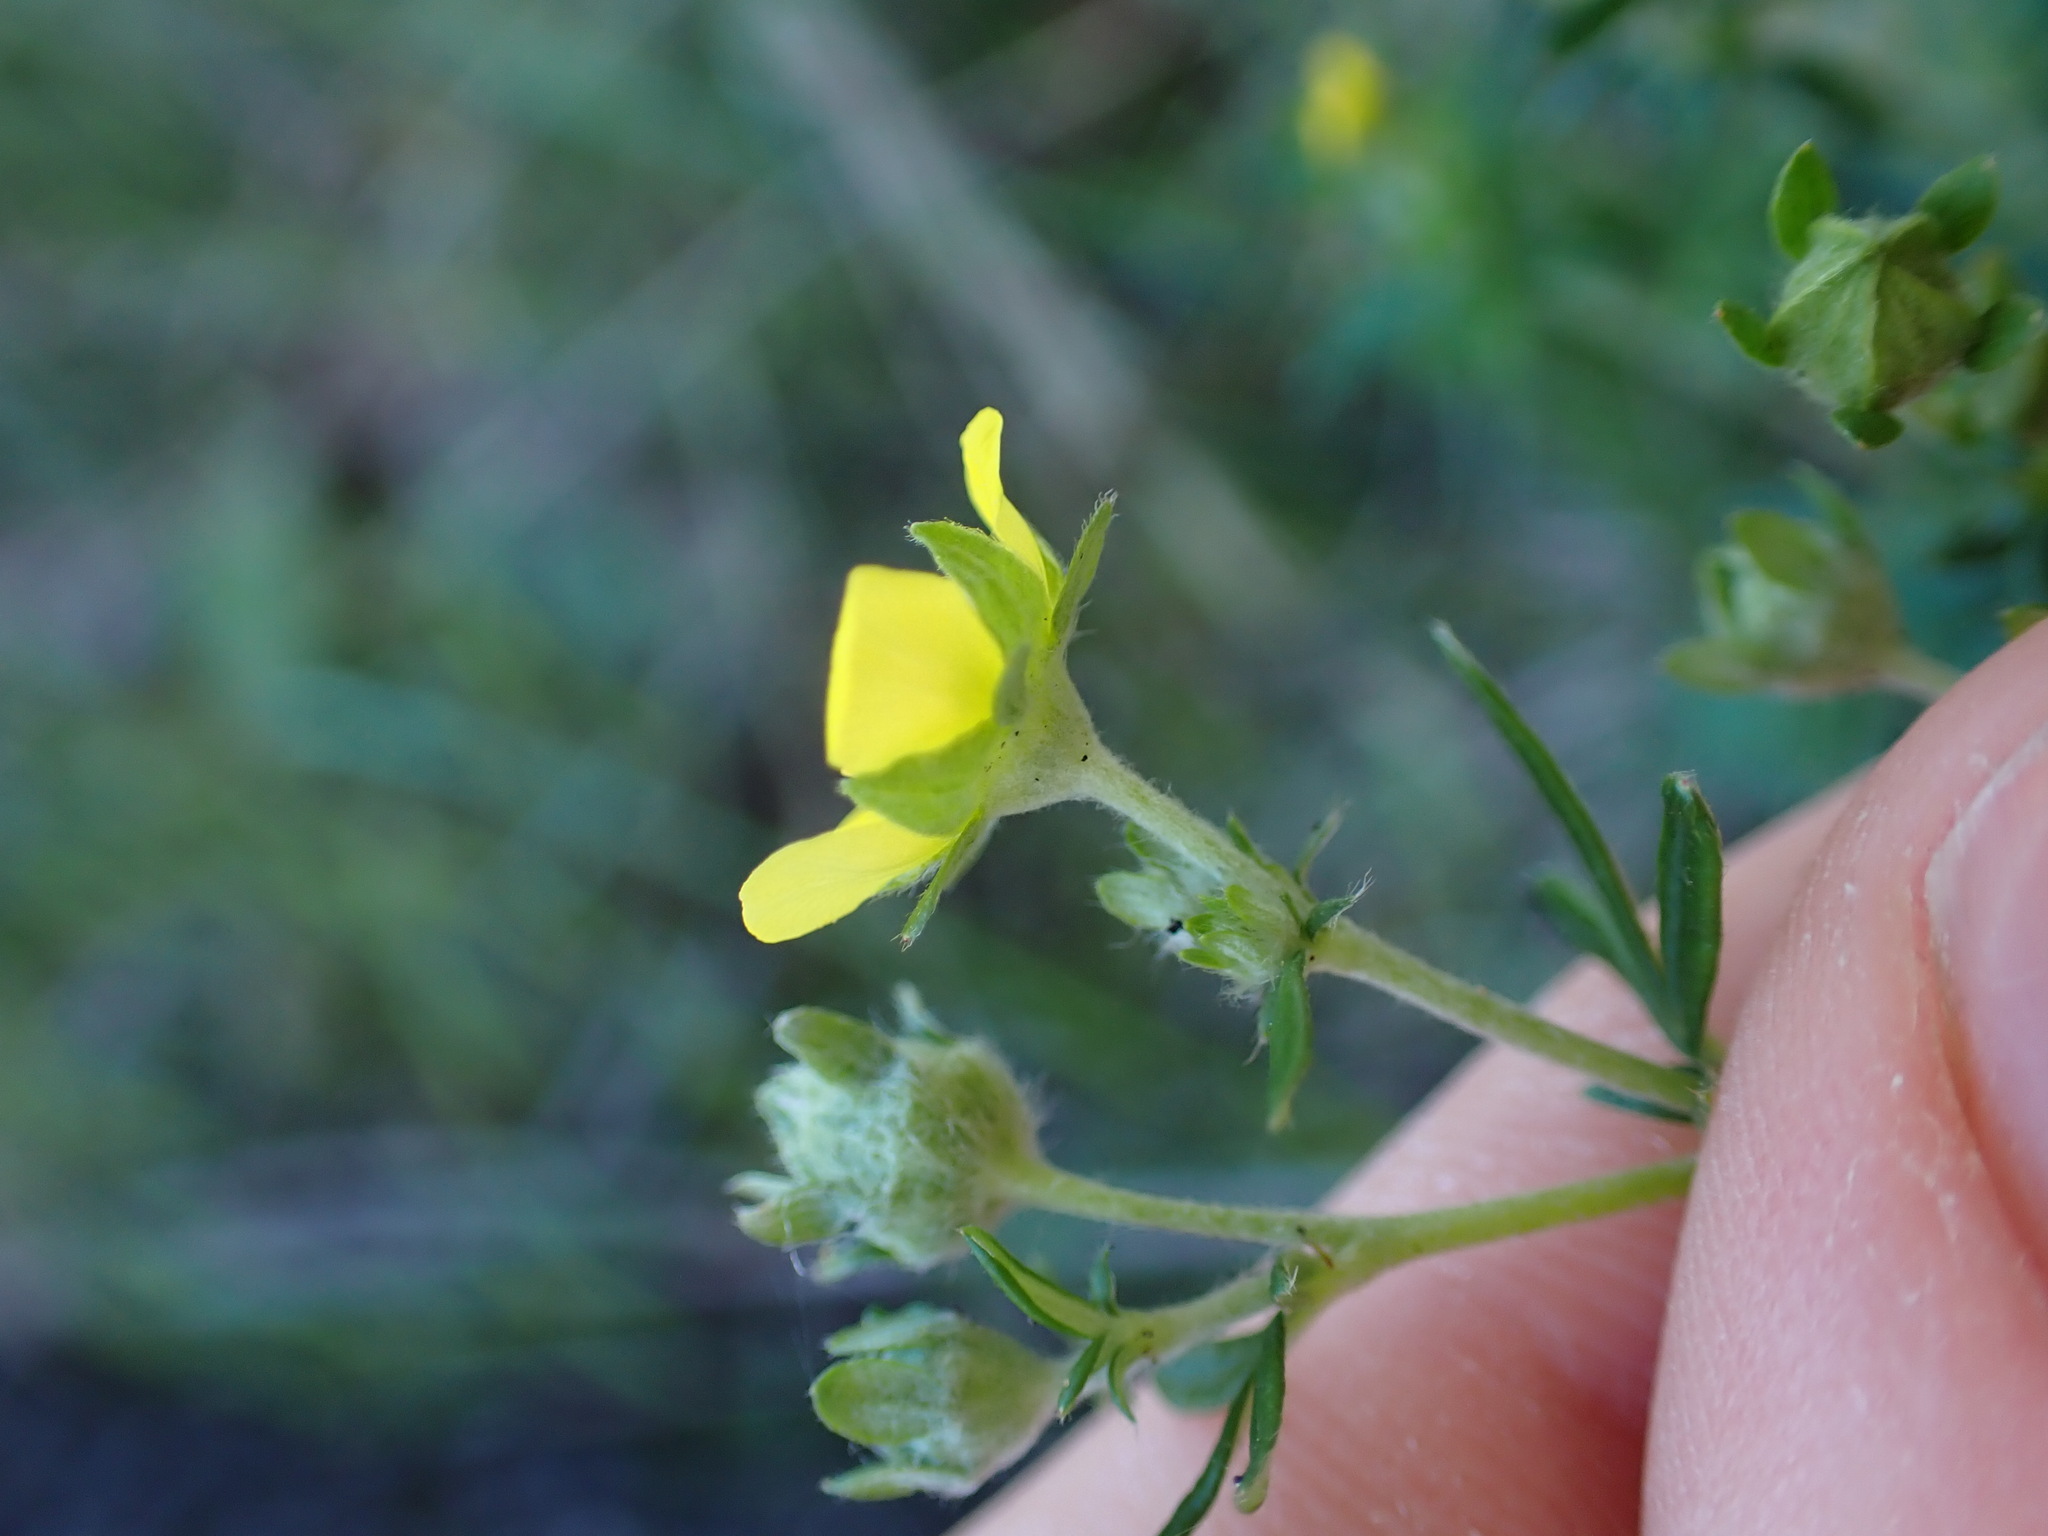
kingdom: Plantae
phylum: Tracheophyta
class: Magnoliopsida
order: Rosales
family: Rosaceae
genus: Potentilla
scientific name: Potentilla argentea
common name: Hoary cinquefoil
